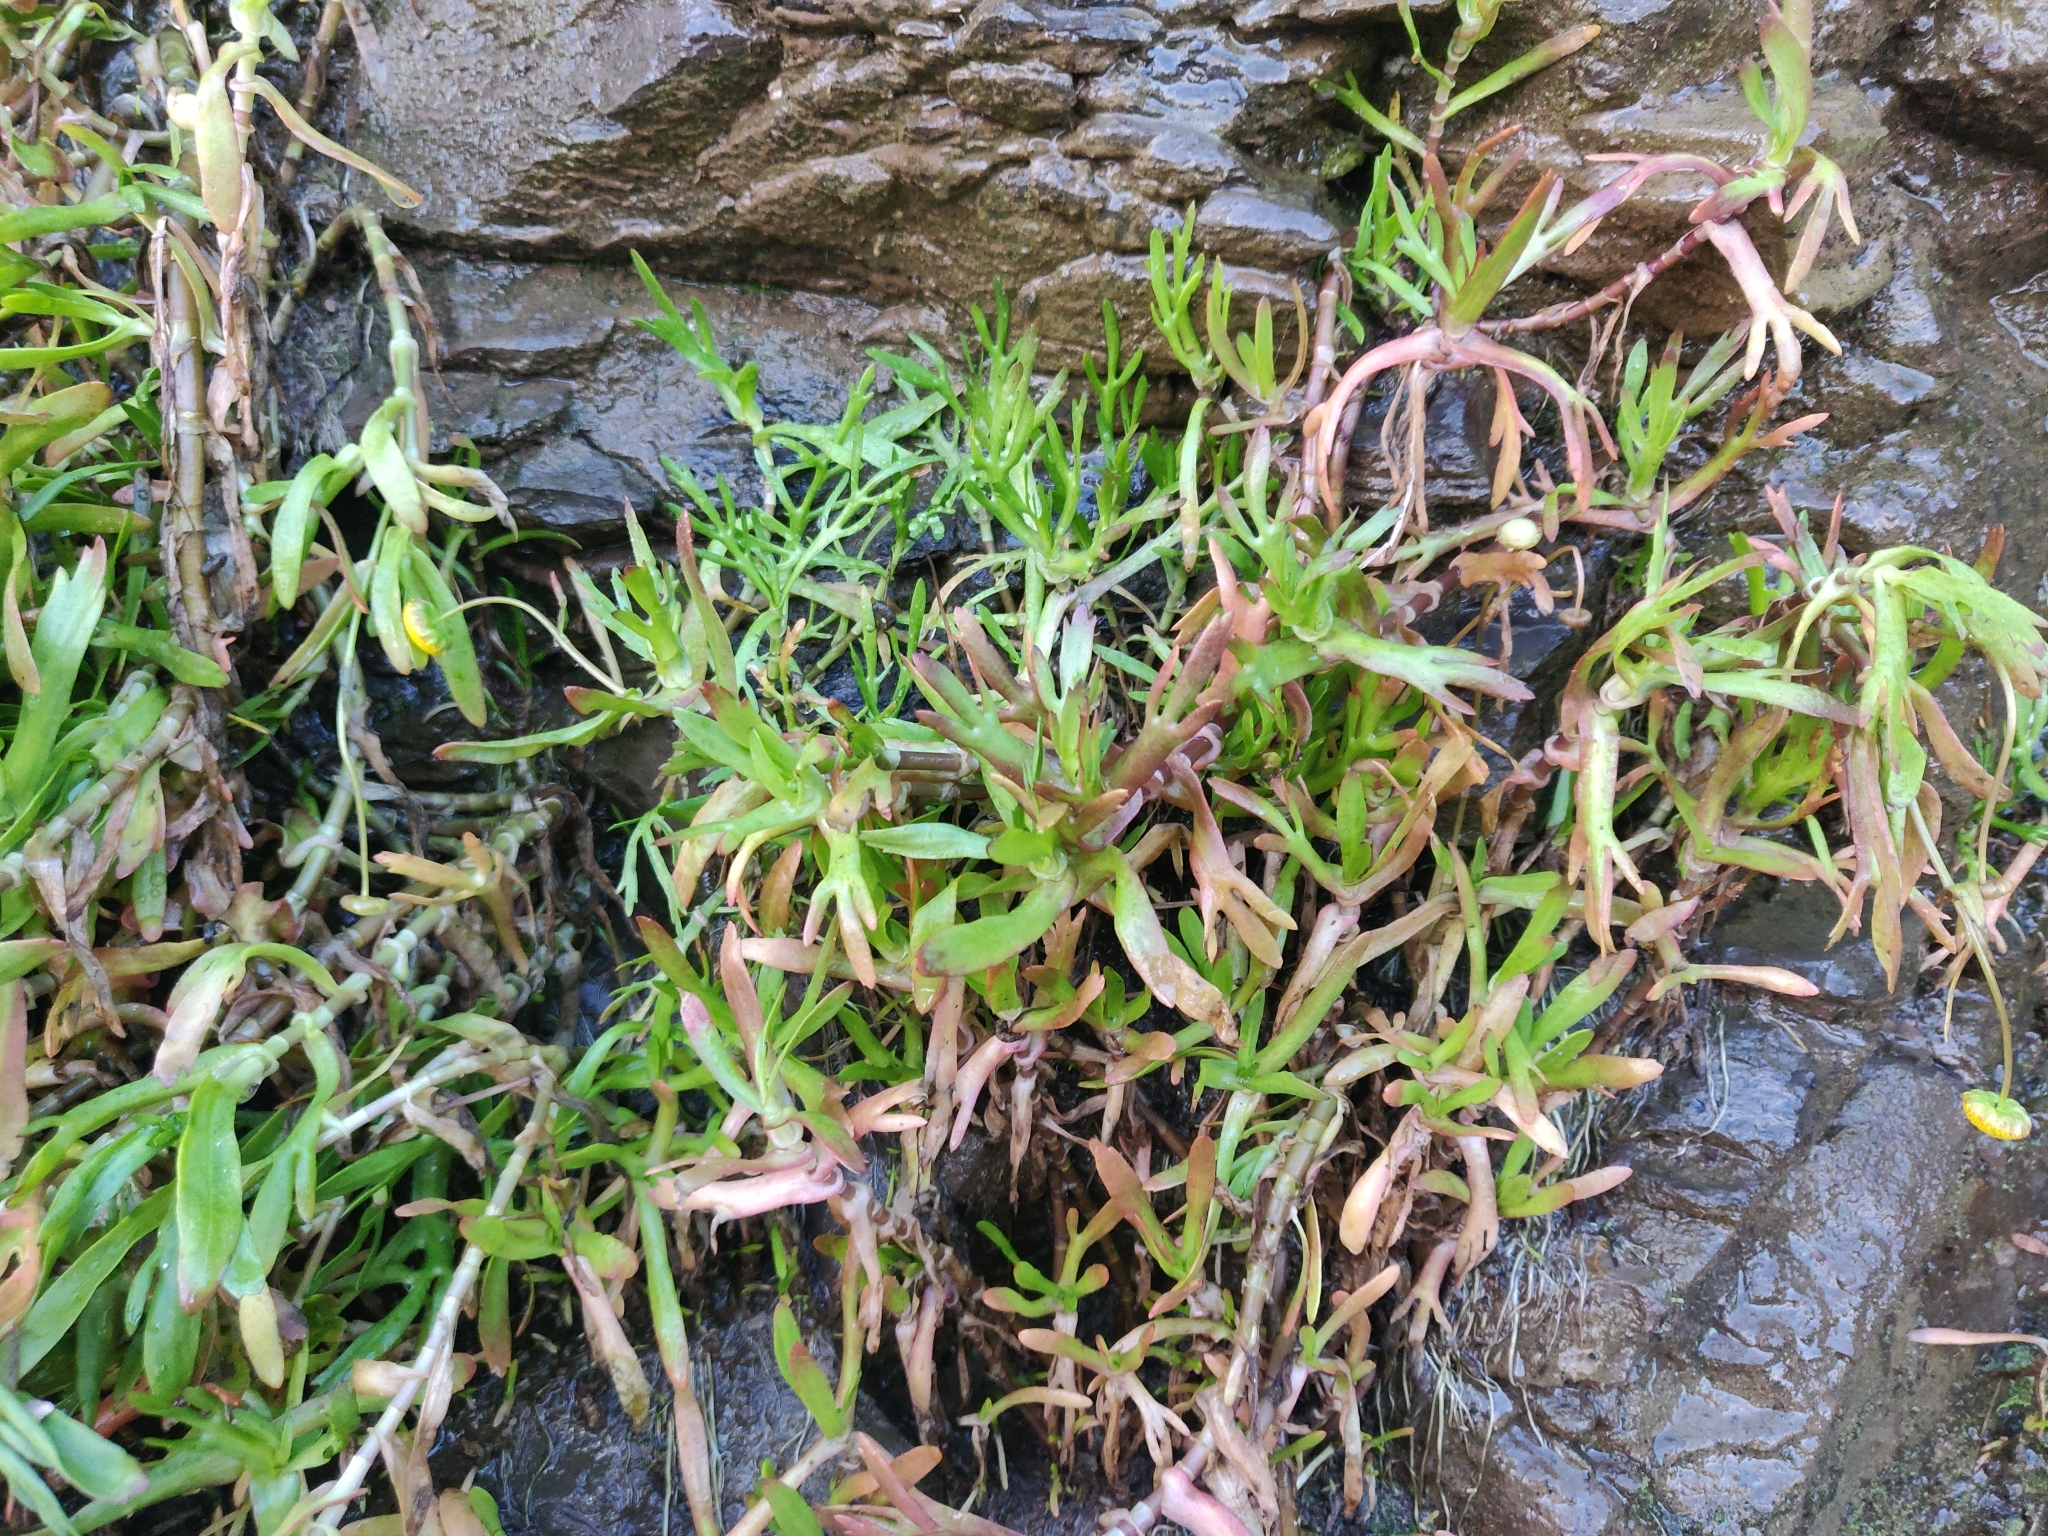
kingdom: Plantae
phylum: Tracheophyta
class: Magnoliopsida
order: Asterales
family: Asteraceae
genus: Cotula
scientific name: Cotula coronopifolia
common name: Buttonweed
